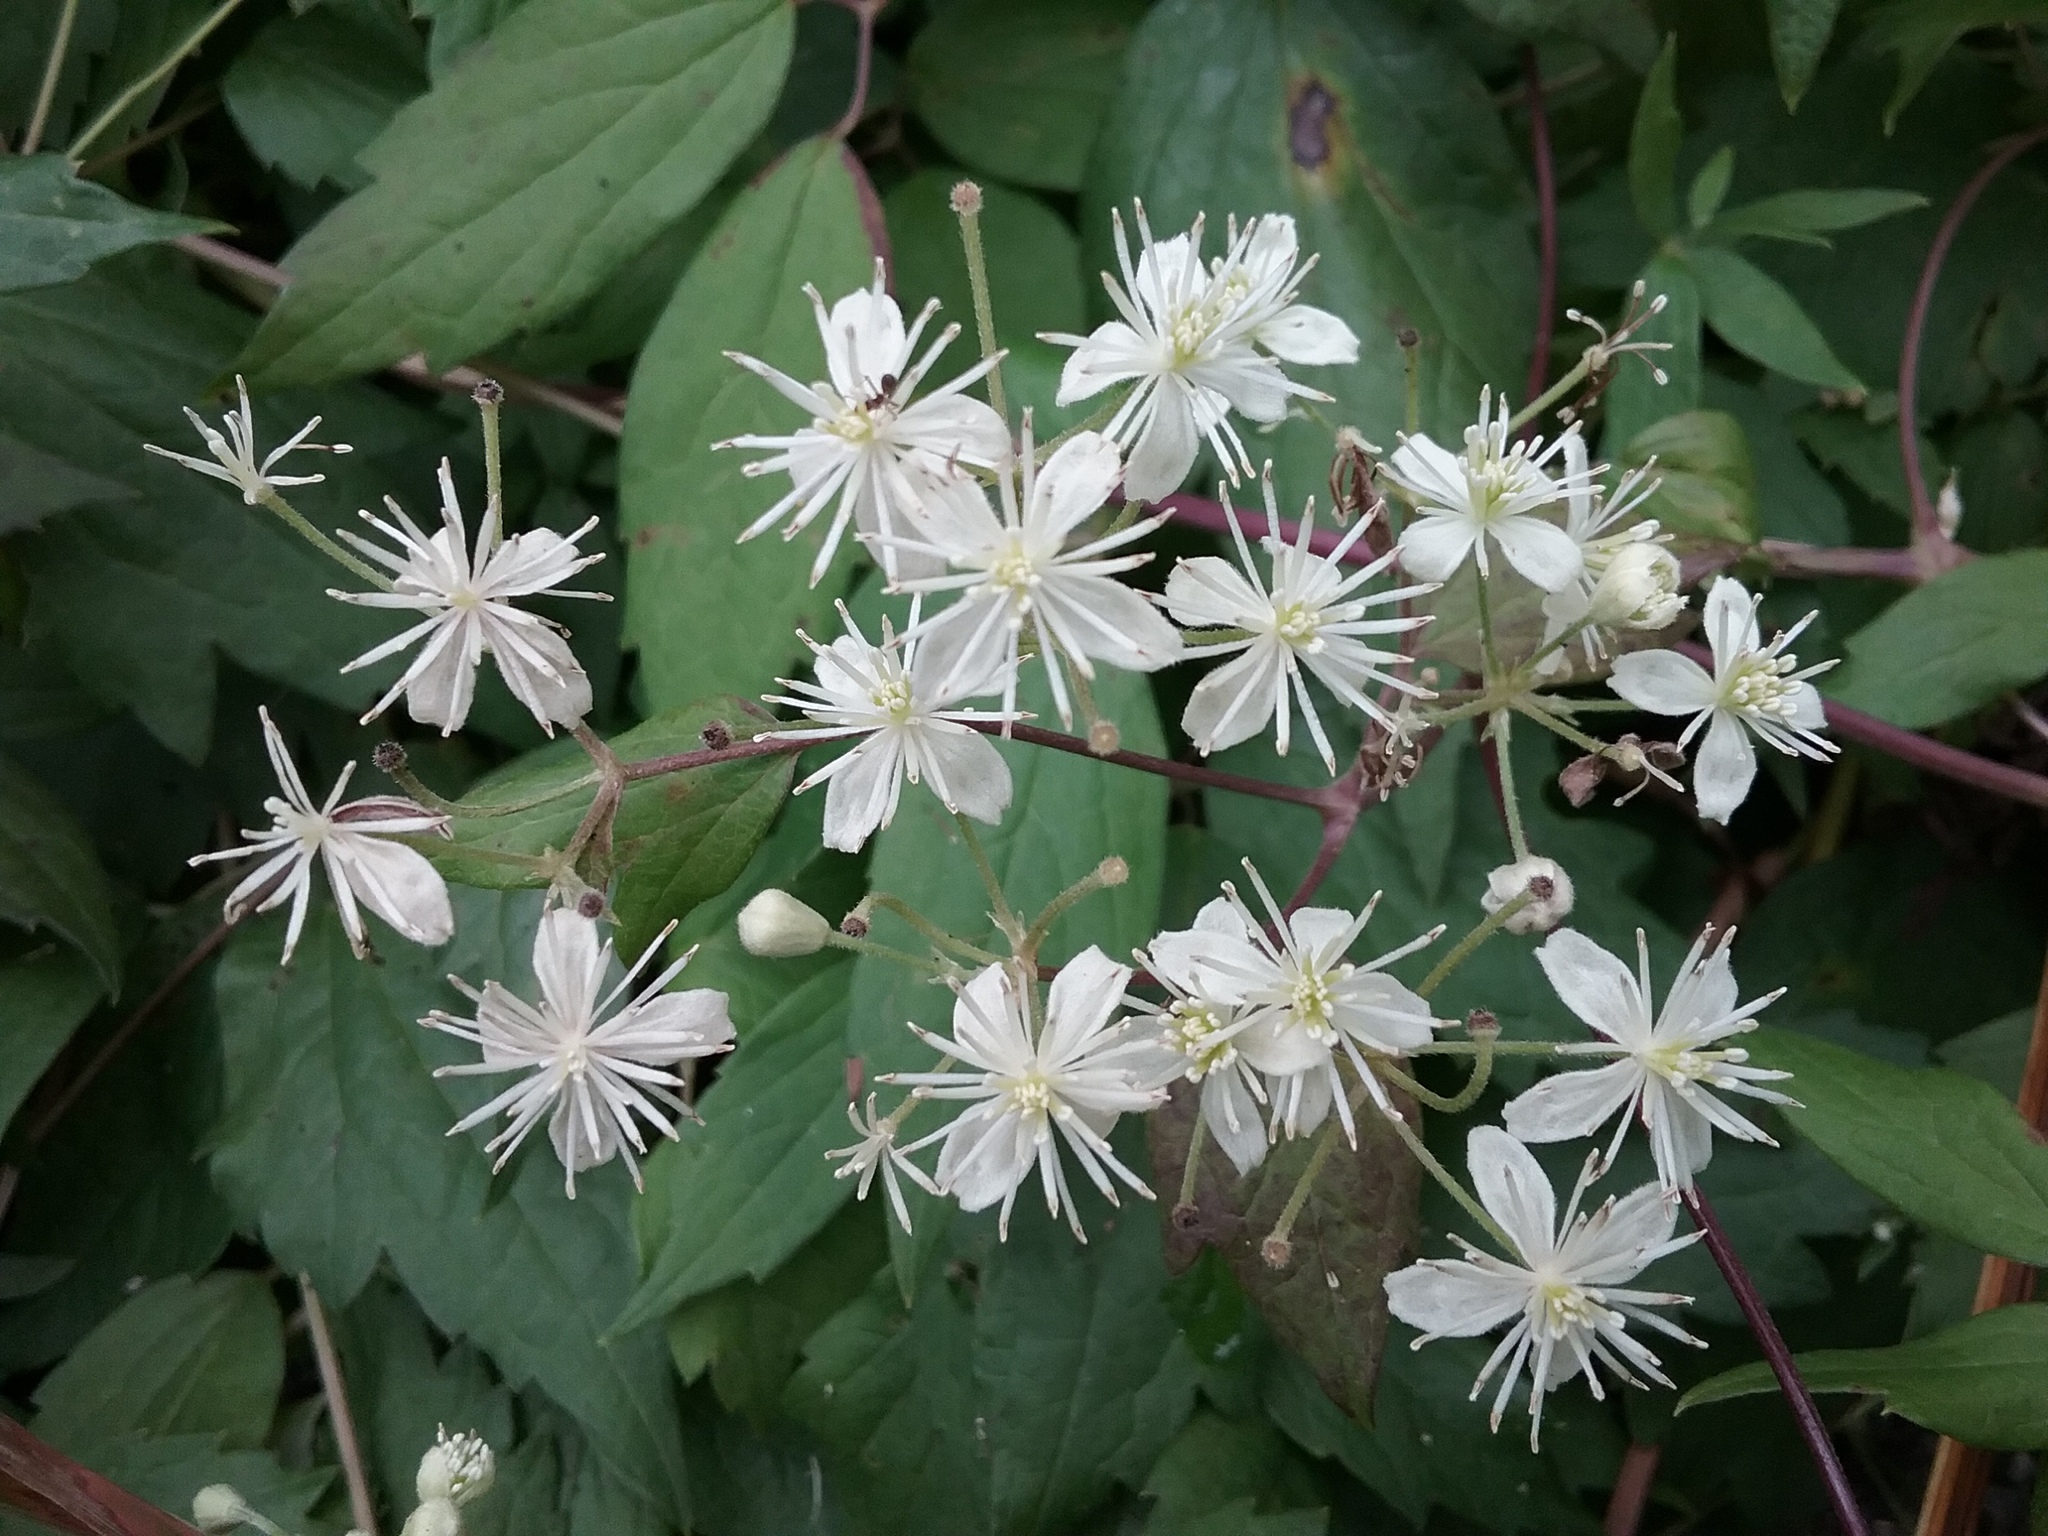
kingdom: Plantae
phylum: Tracheophyta
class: Magnoliopsida
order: Ranunculales
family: Ranunculaceae
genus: Clematis
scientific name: Clematis virginiana
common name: Virgin's-bower
